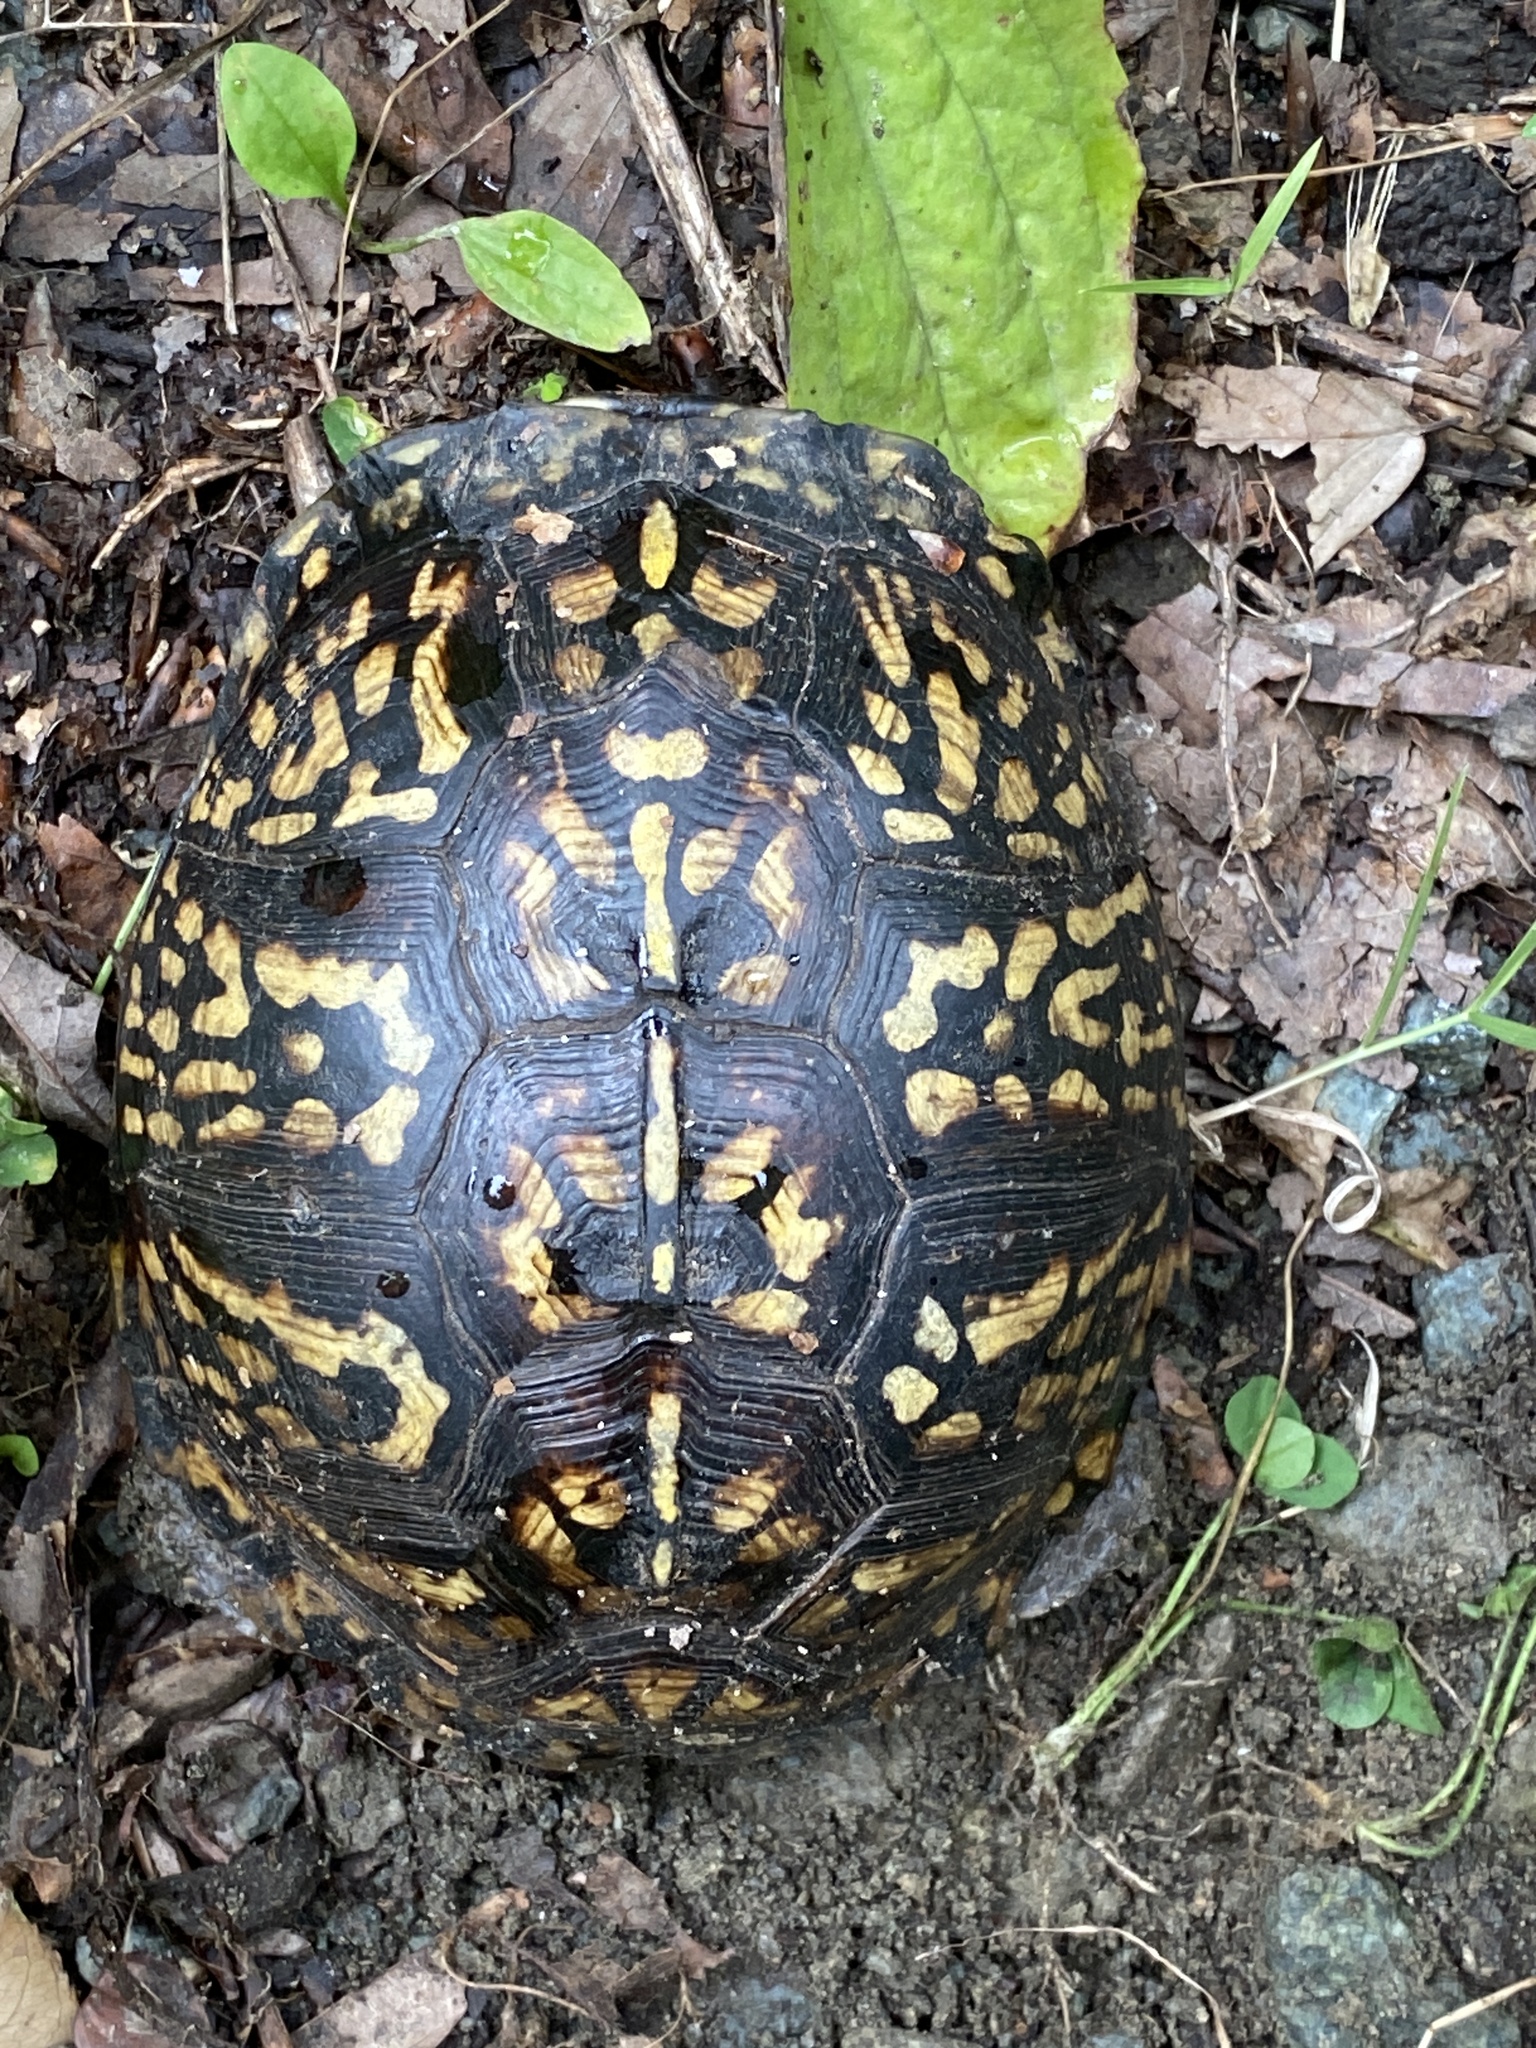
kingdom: Animalia
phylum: Chordata
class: Testudines
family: Emydidae
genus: Terrapene
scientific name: Terrapene carolina
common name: Common box turtle
